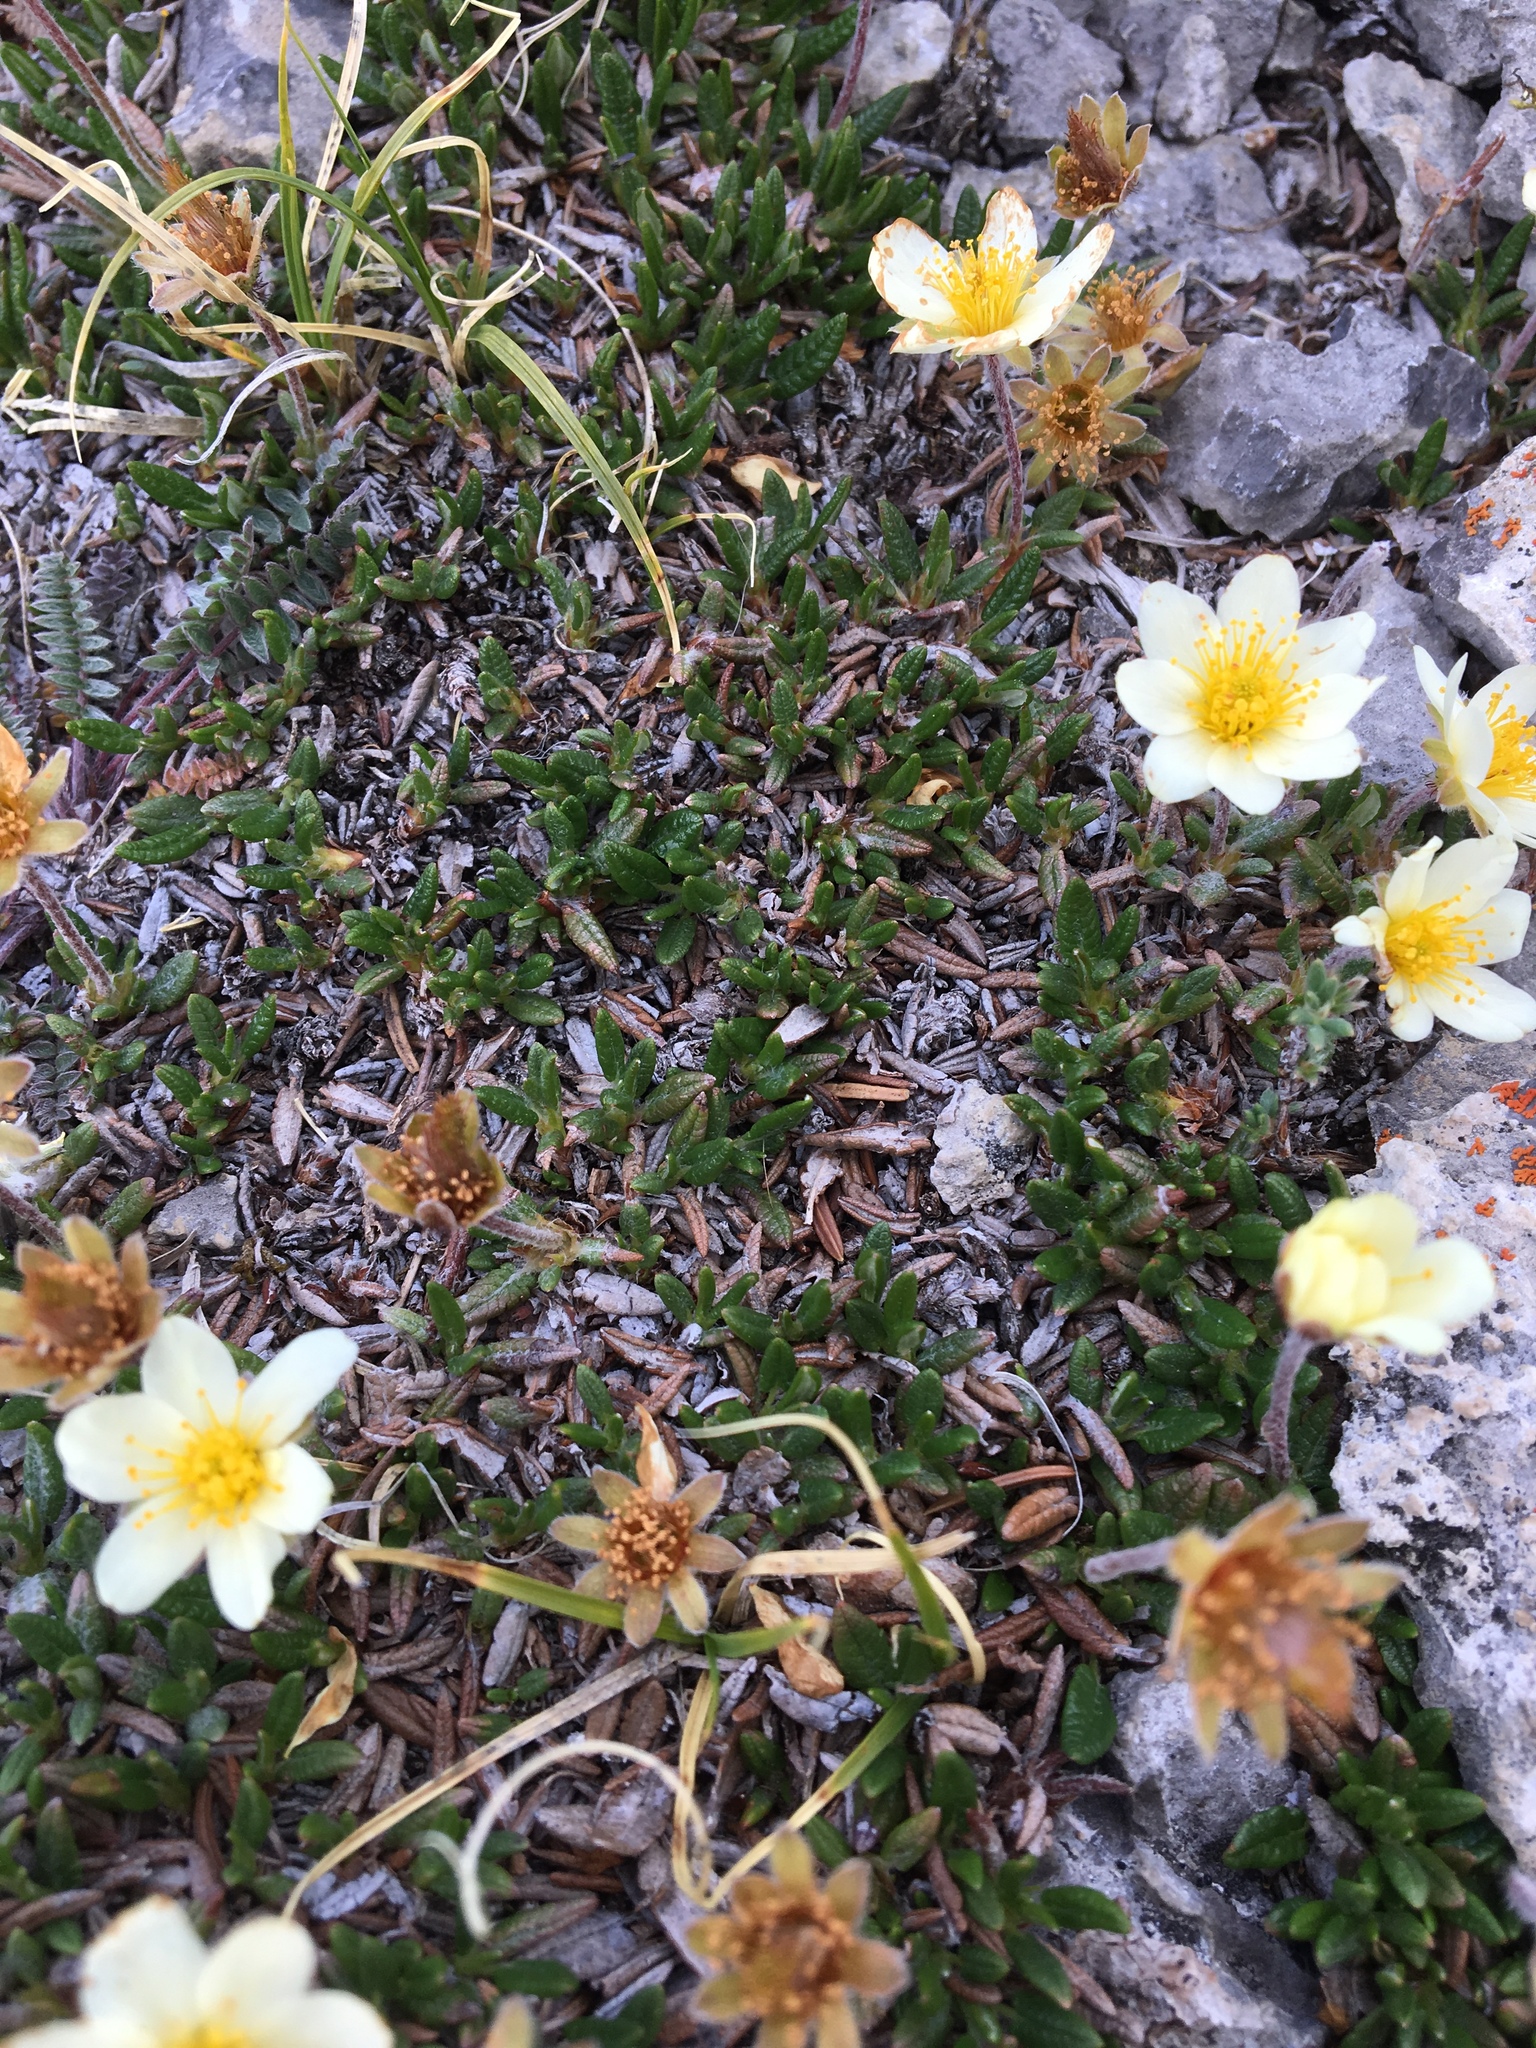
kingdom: Plantae
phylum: Tracheophyta
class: Magnoliopsida
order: Rosales
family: Rosaceae
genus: Dryas
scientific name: Dryas integrifolia
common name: Entire-leaved mountain avens
